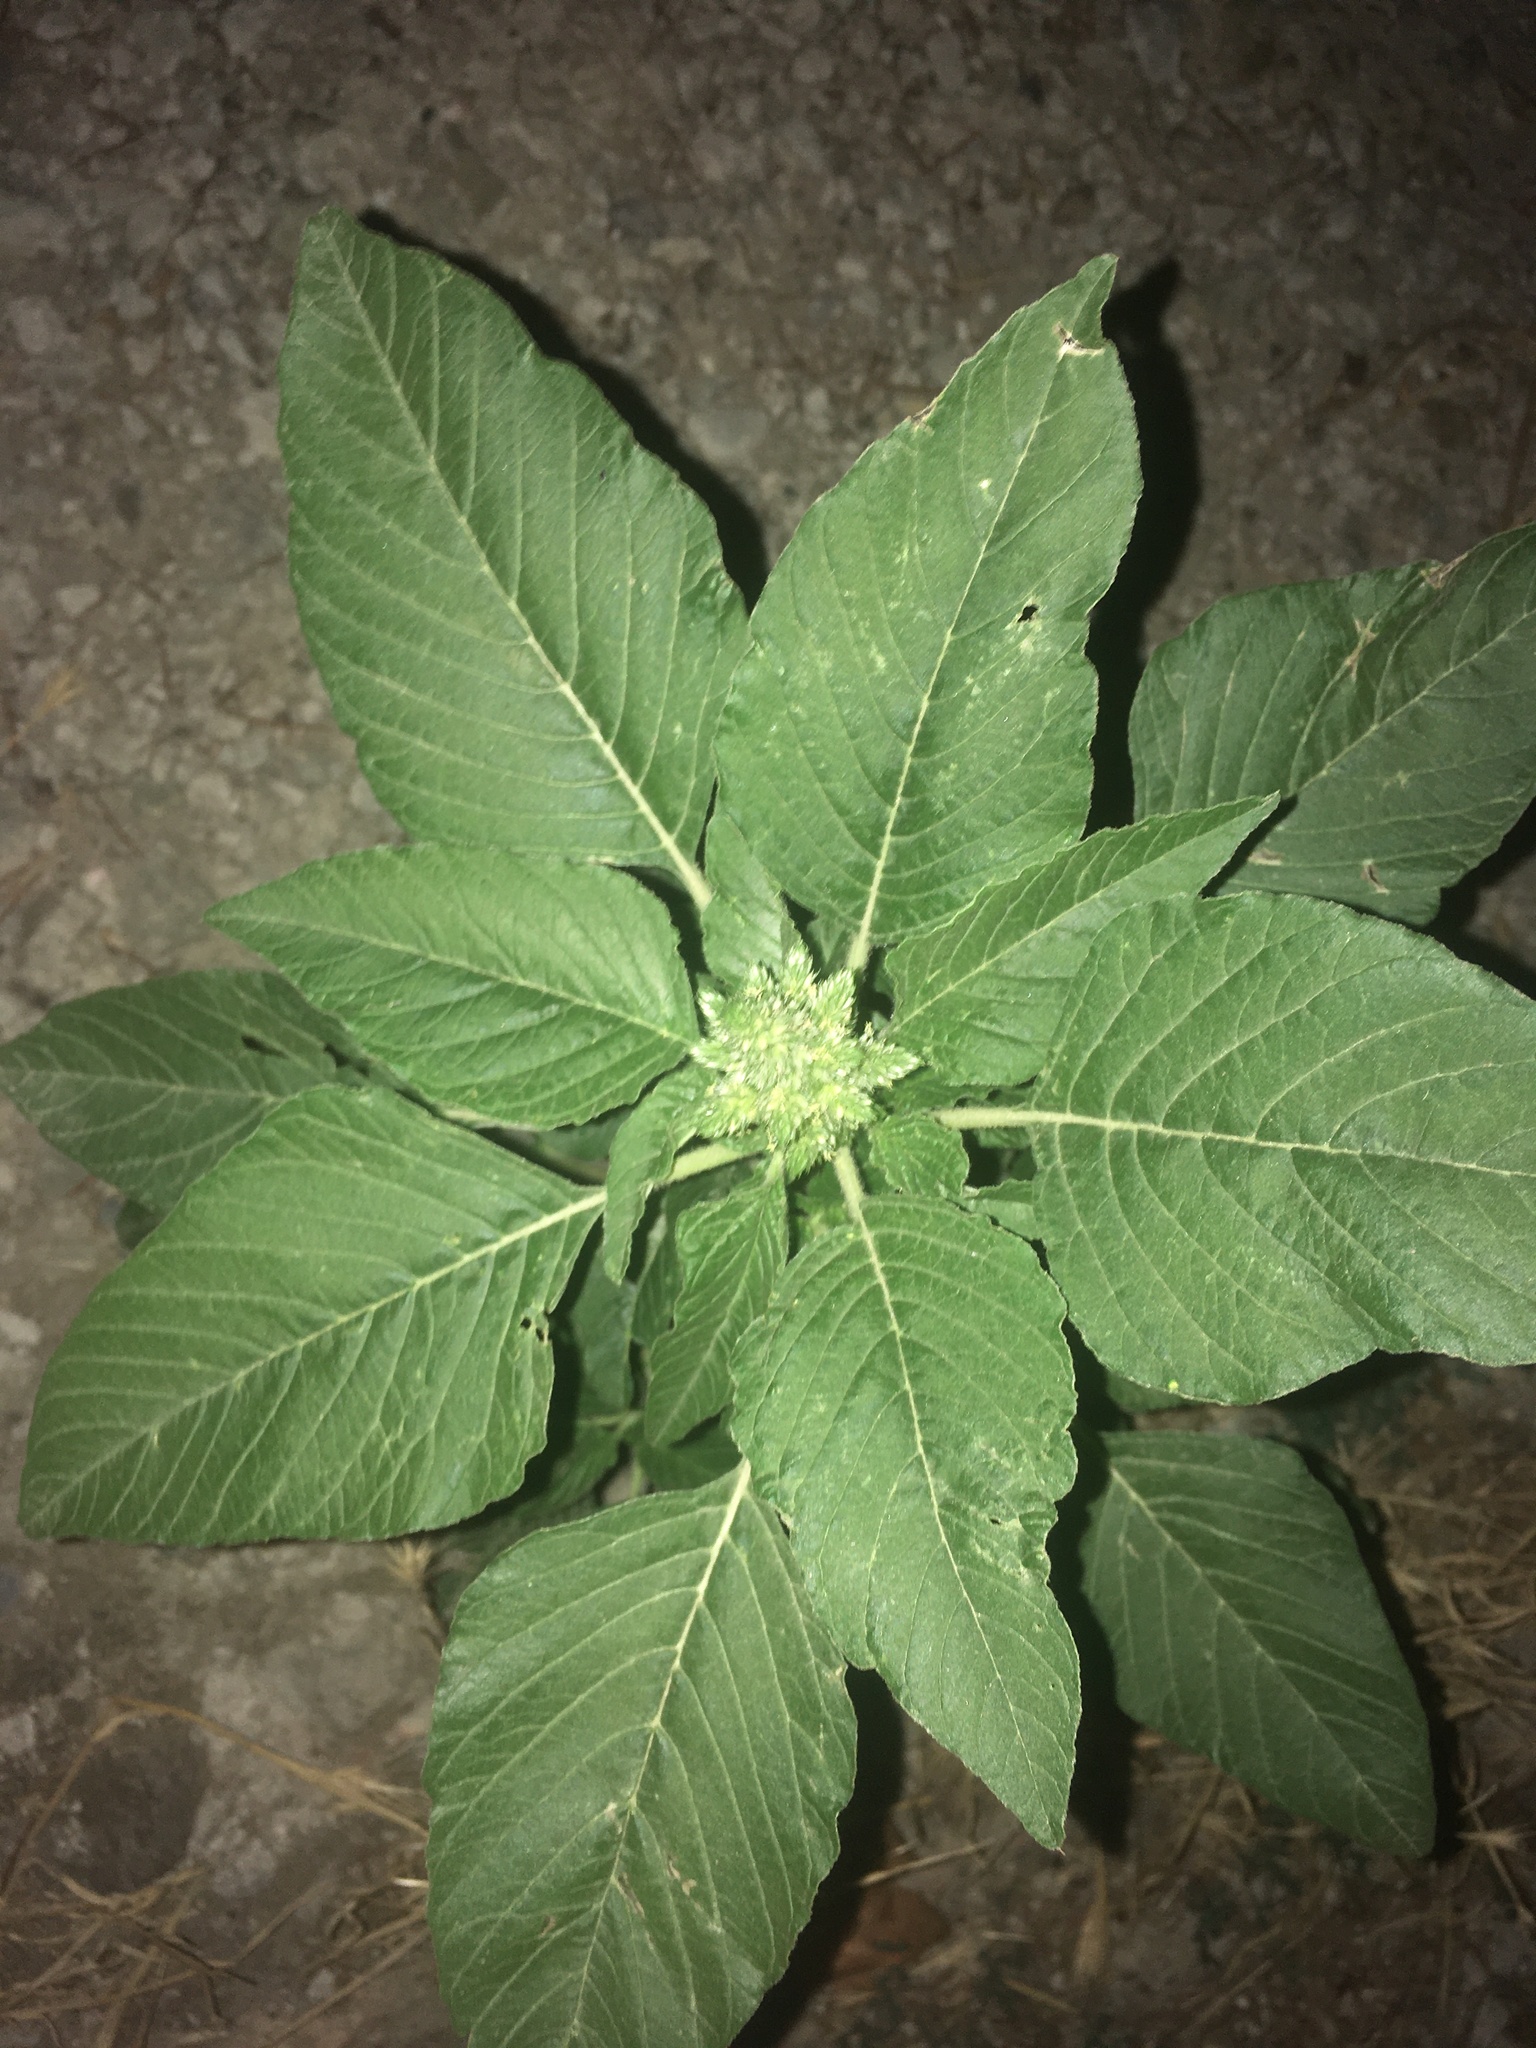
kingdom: Plantae
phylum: Tracheophyta
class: Magnoliopsida
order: Caryophyllales
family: Amaranthaceae
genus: Amaranthus
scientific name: Amaranthus retroflexus
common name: Redroot amaranth
